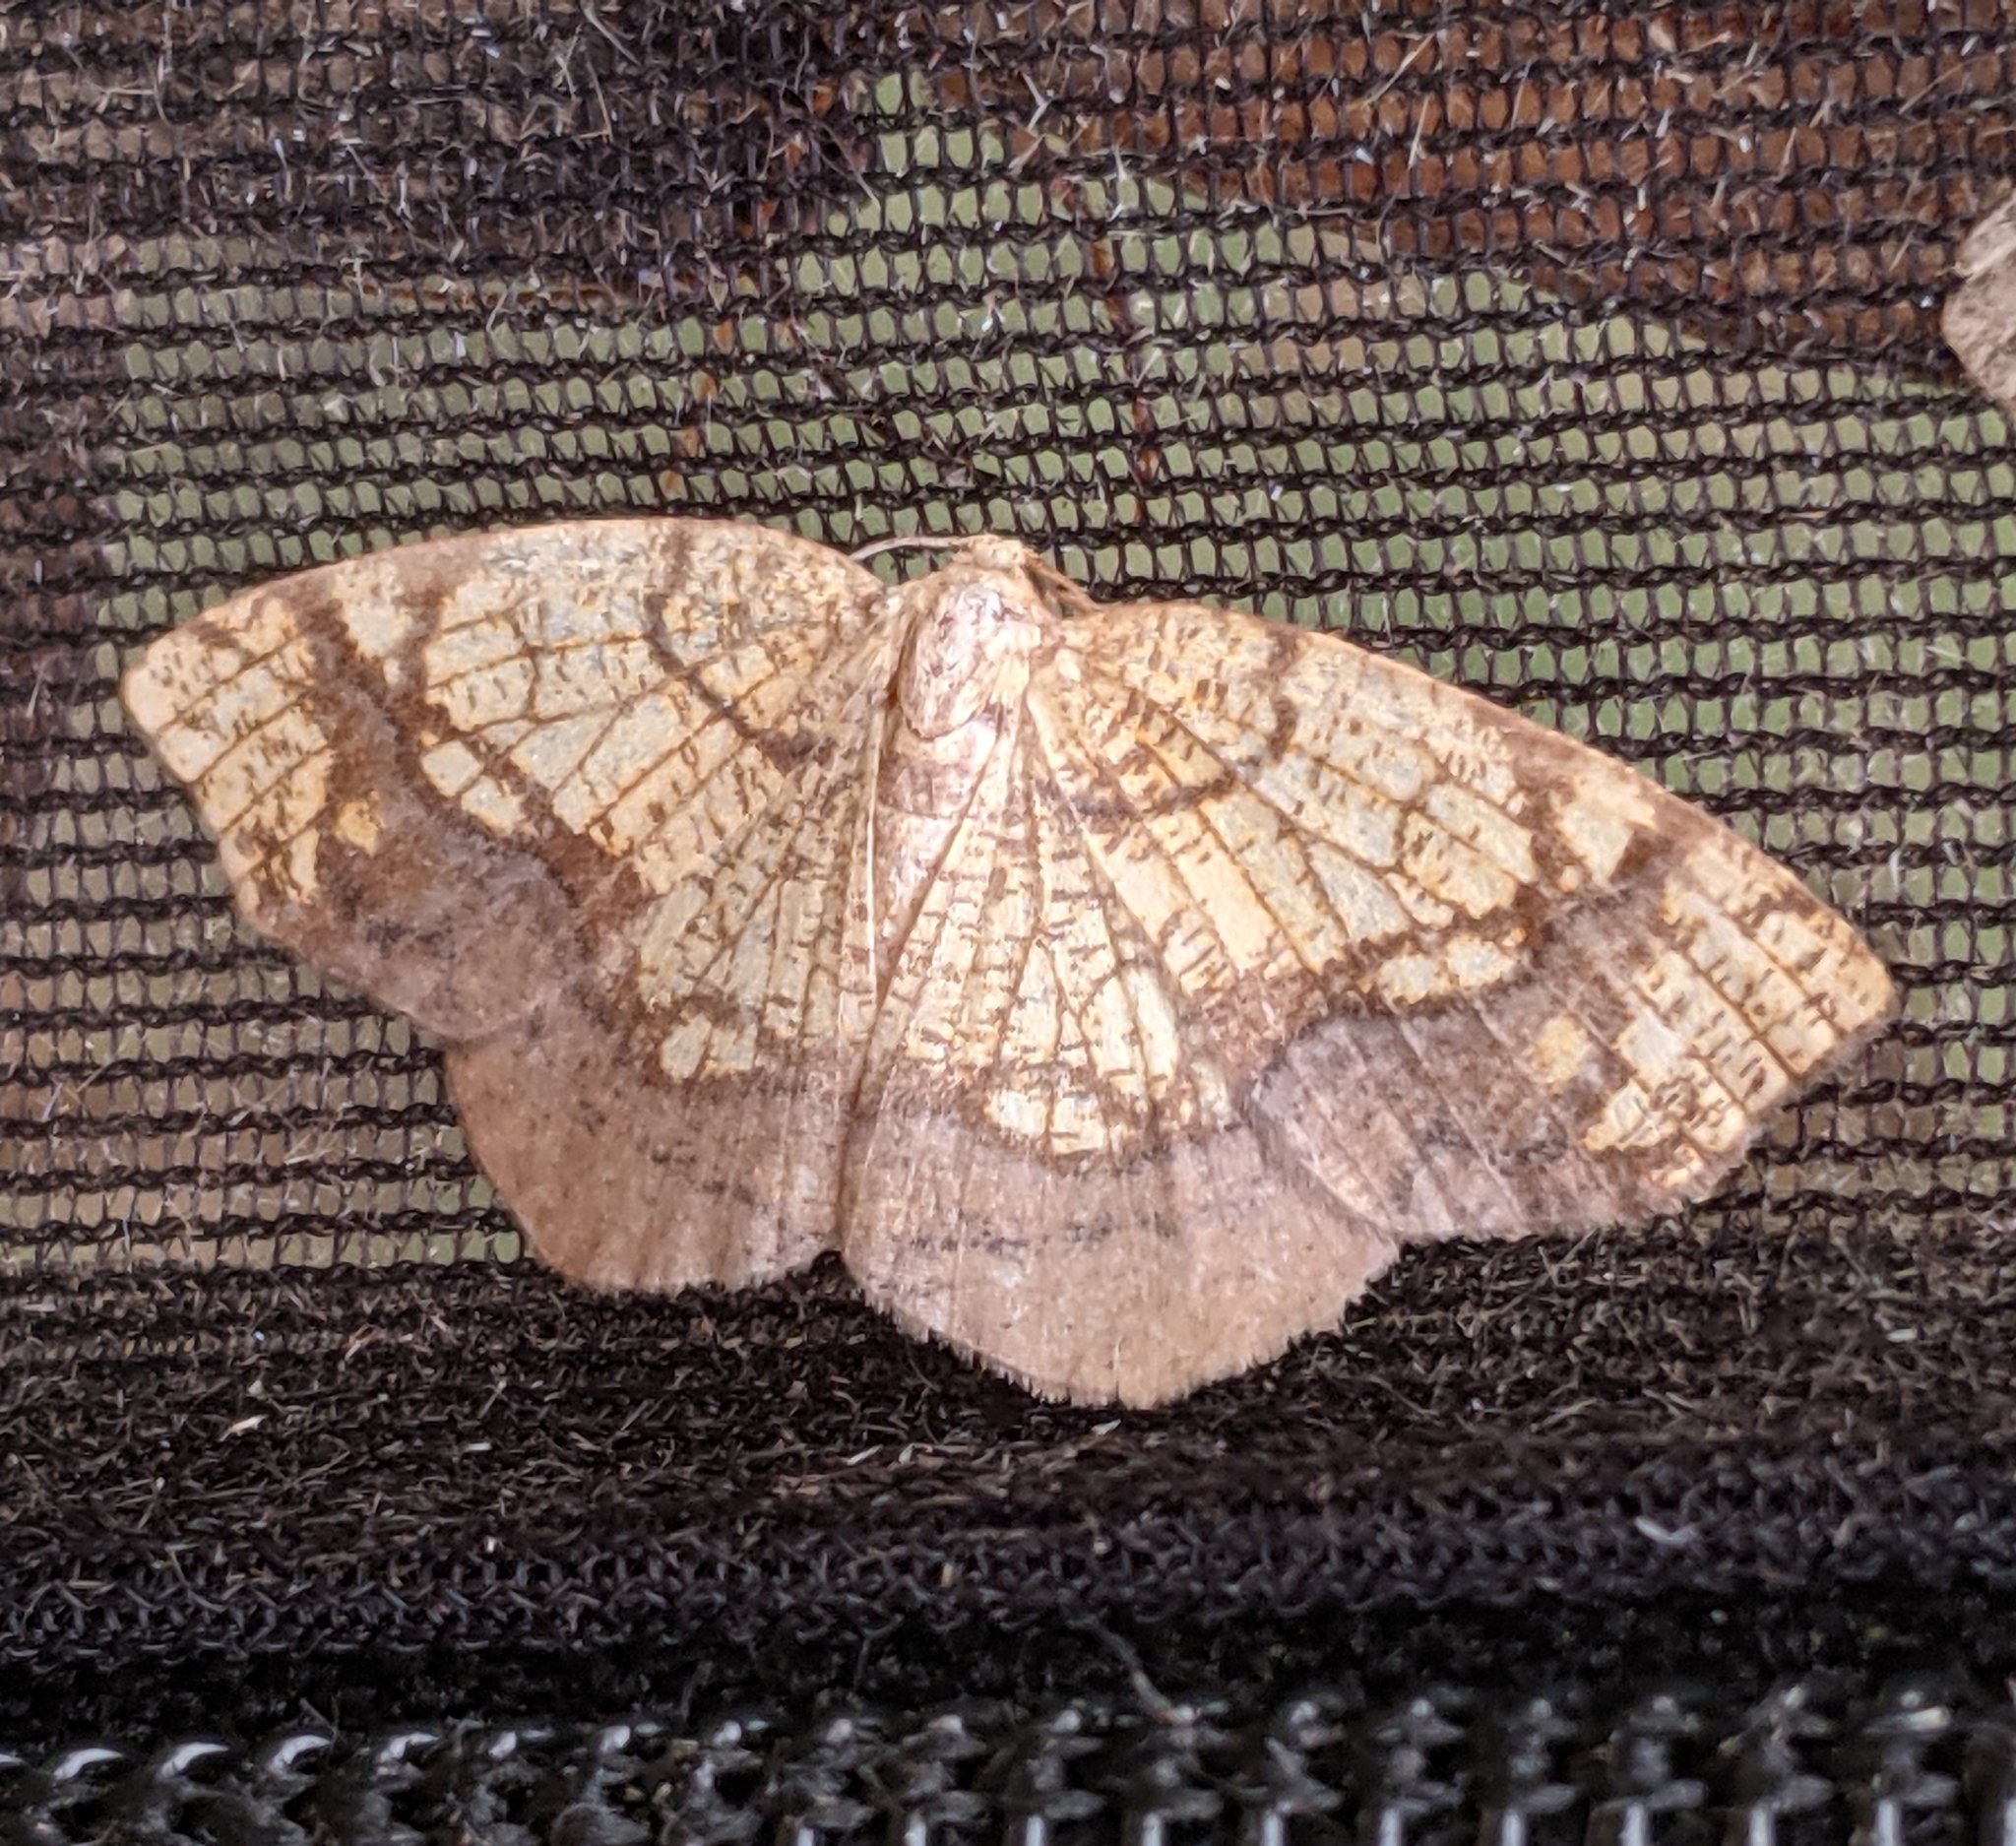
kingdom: Animalia
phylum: Arthropoda
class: Insecta
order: Lepidoptera
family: Geometridae
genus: Nematocampa
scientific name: Nematocampa resistaria
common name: Horned spanworm moth
